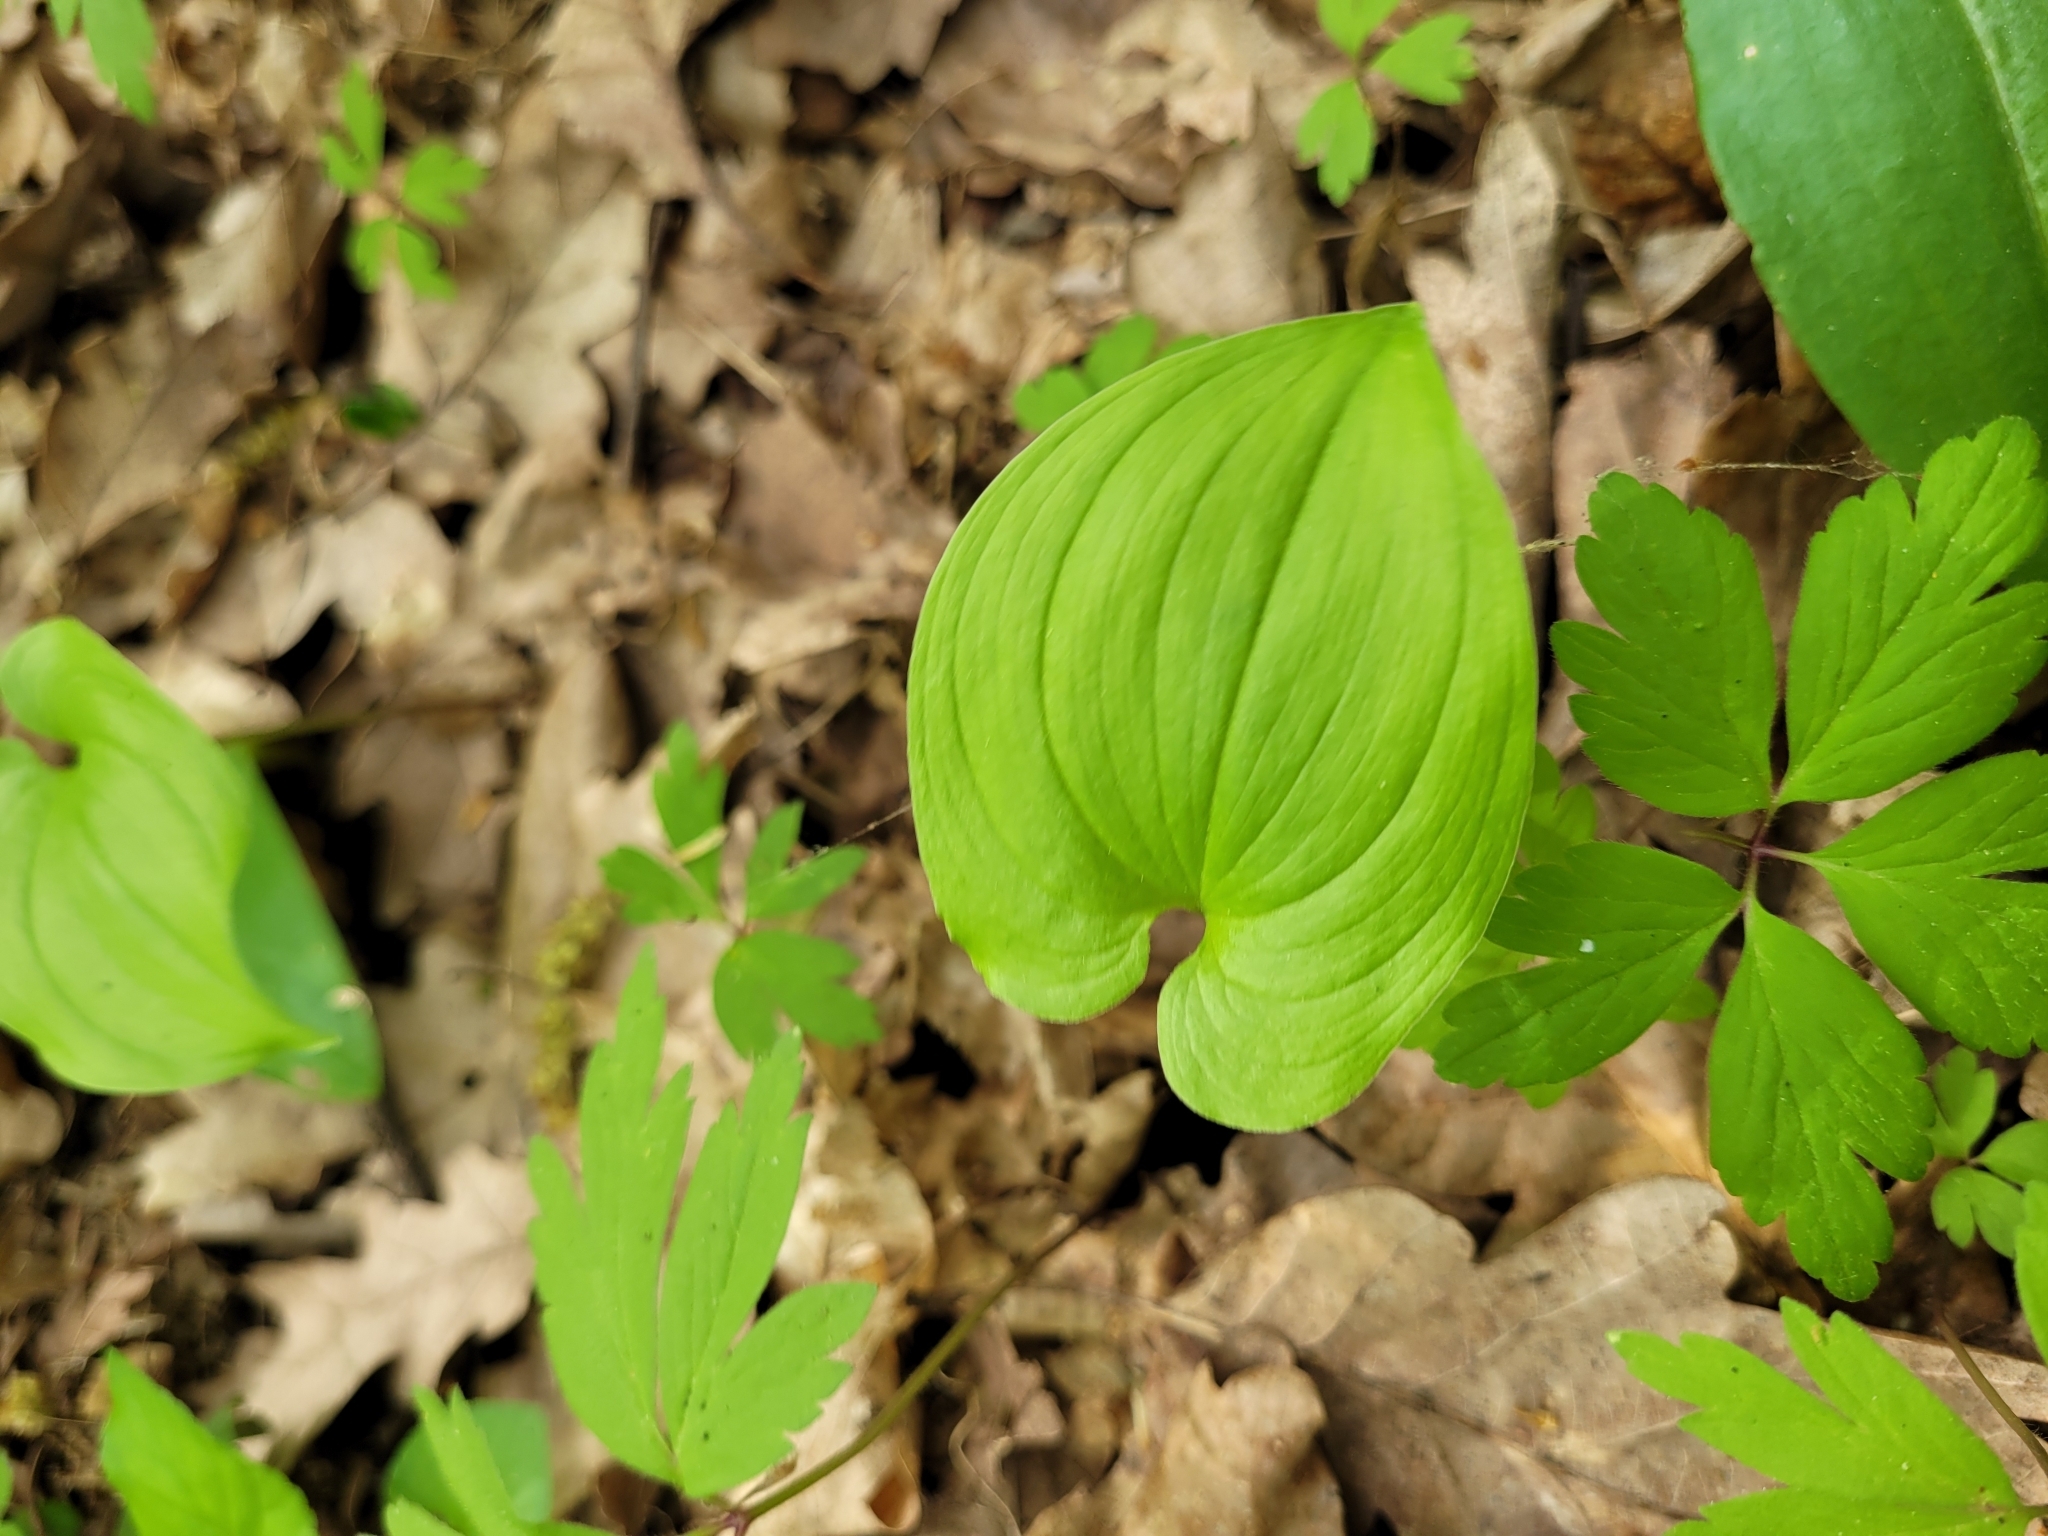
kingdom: Plantae
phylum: Tracheophyta
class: Liliopsida
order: Asparagales
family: Asparagaceae
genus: Maianthemum
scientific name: Maianthemum bifolium
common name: May lily
